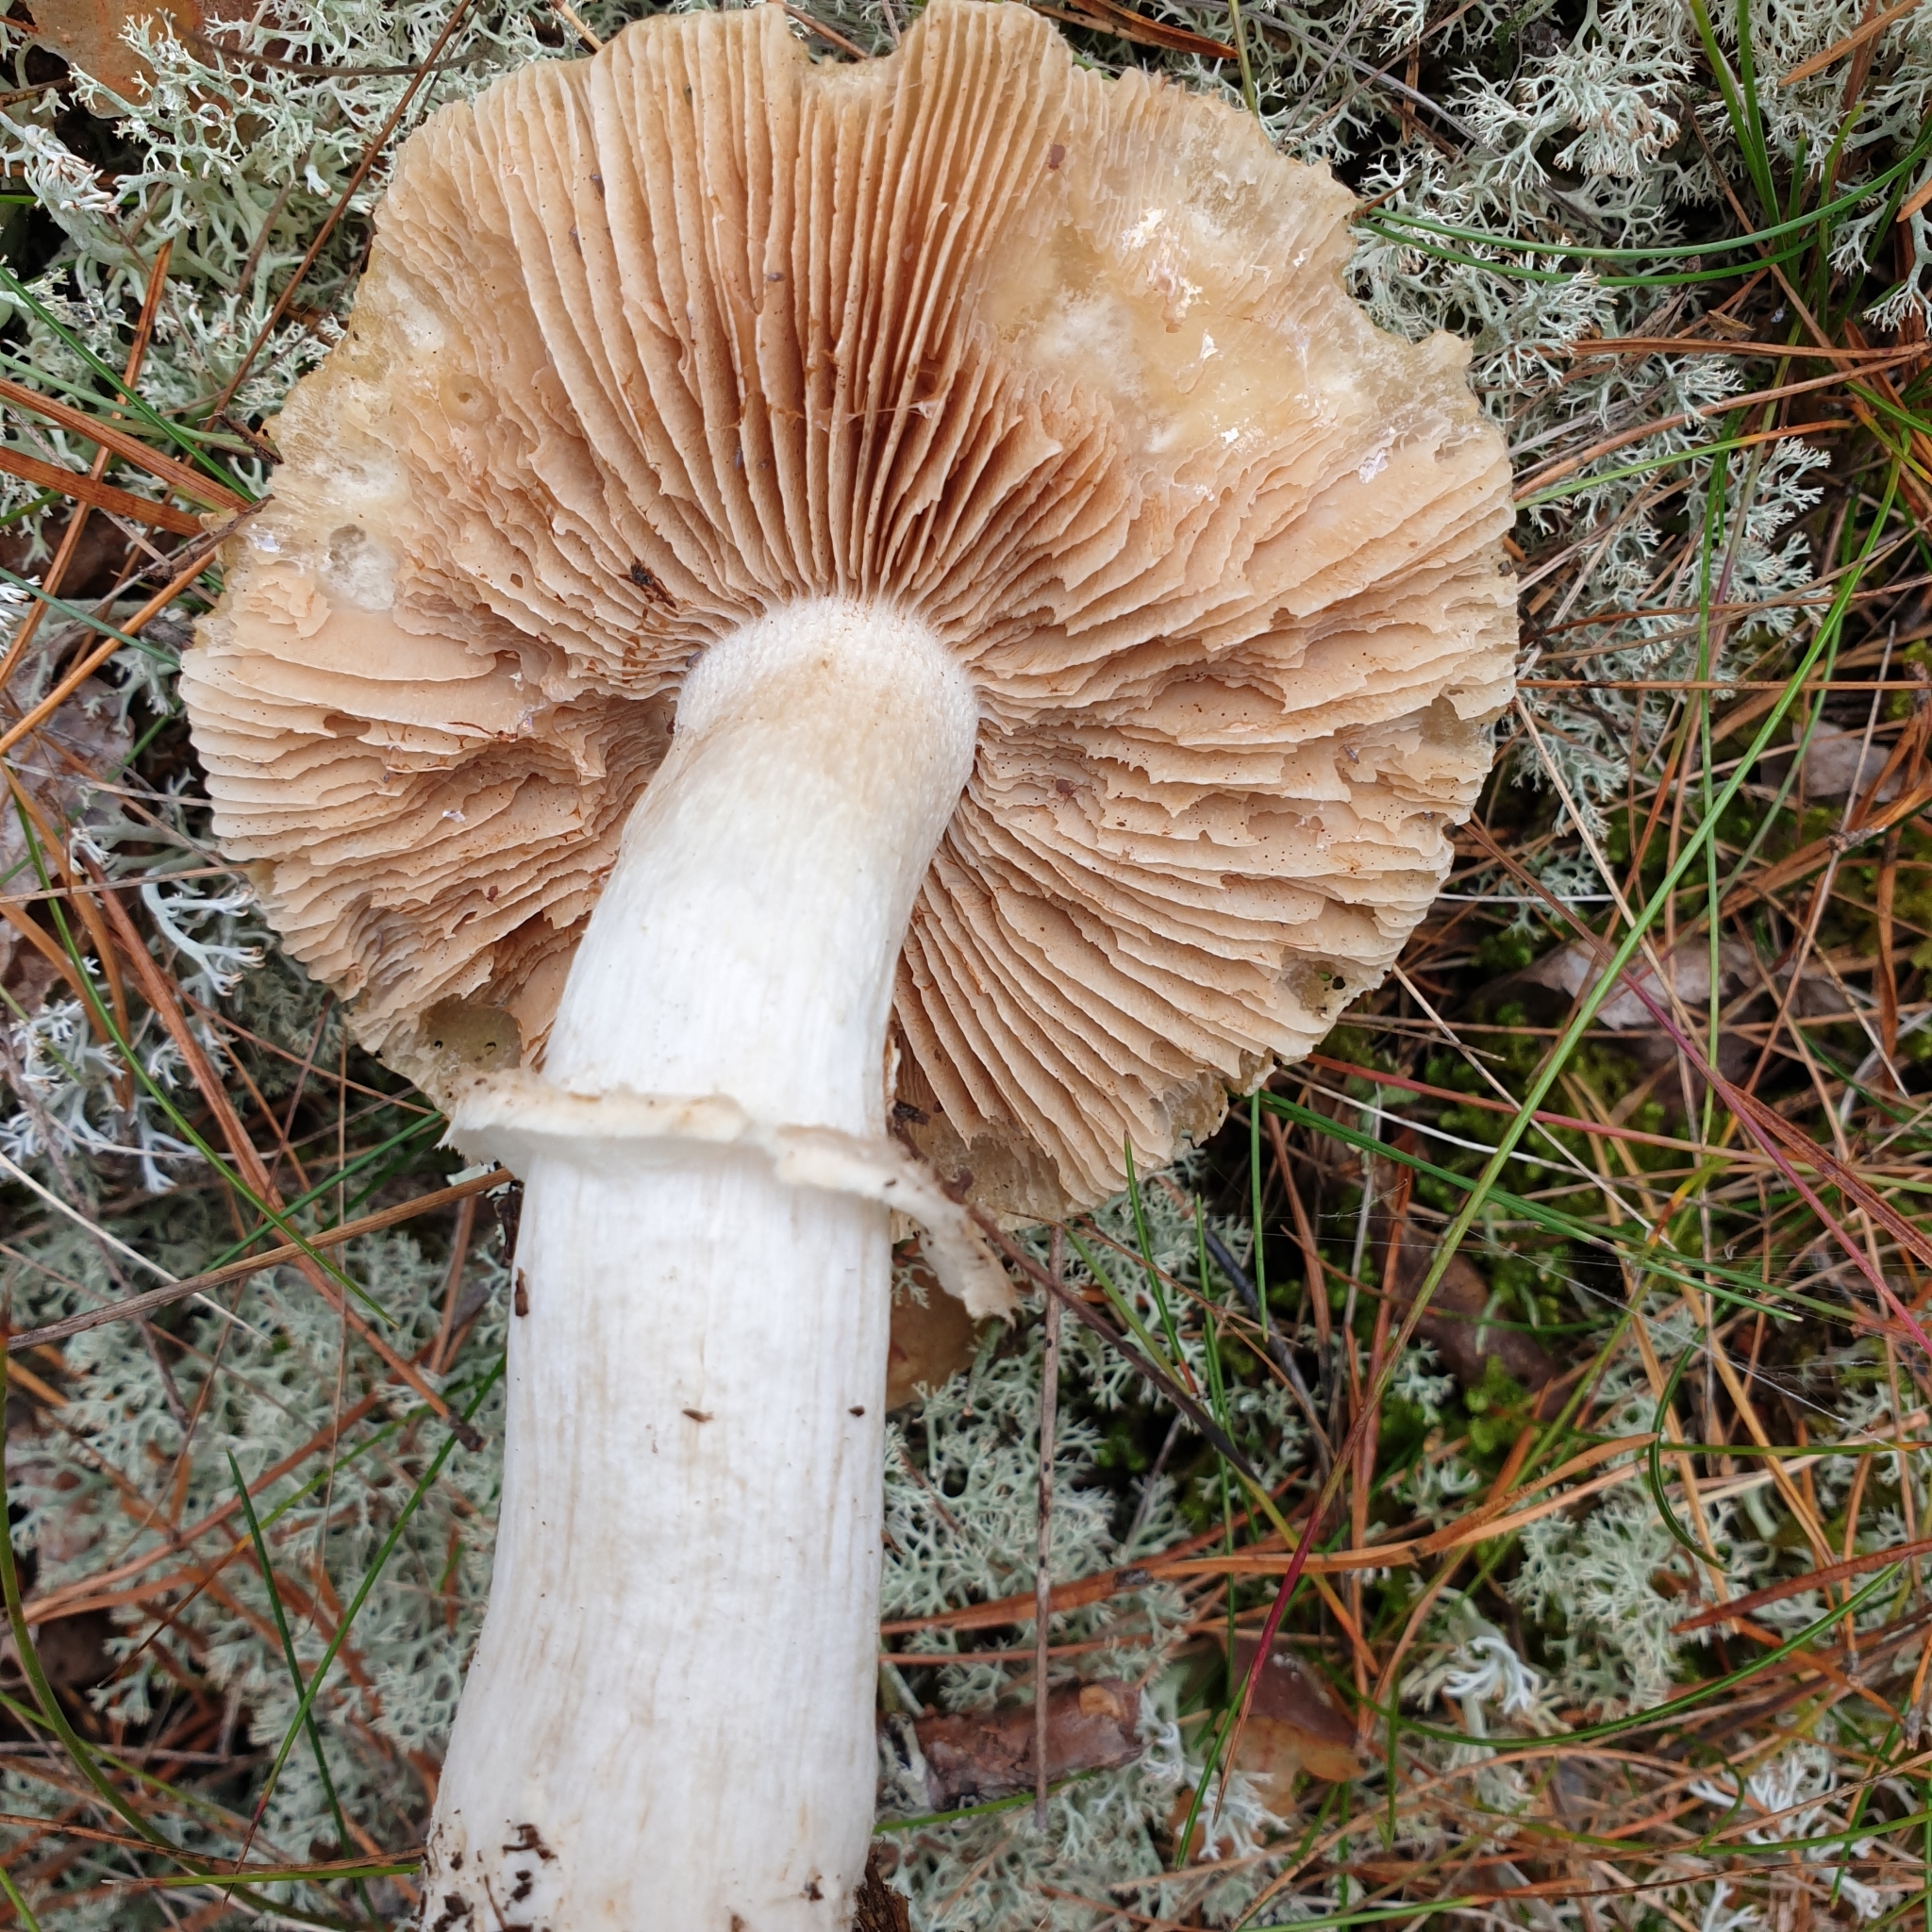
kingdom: Fungi
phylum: Basidiomycota
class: Agaricomycetes
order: Agaricales
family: Cortinariaceae
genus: Cortinarius
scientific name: Cortinarius caperatus
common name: The gypsy
